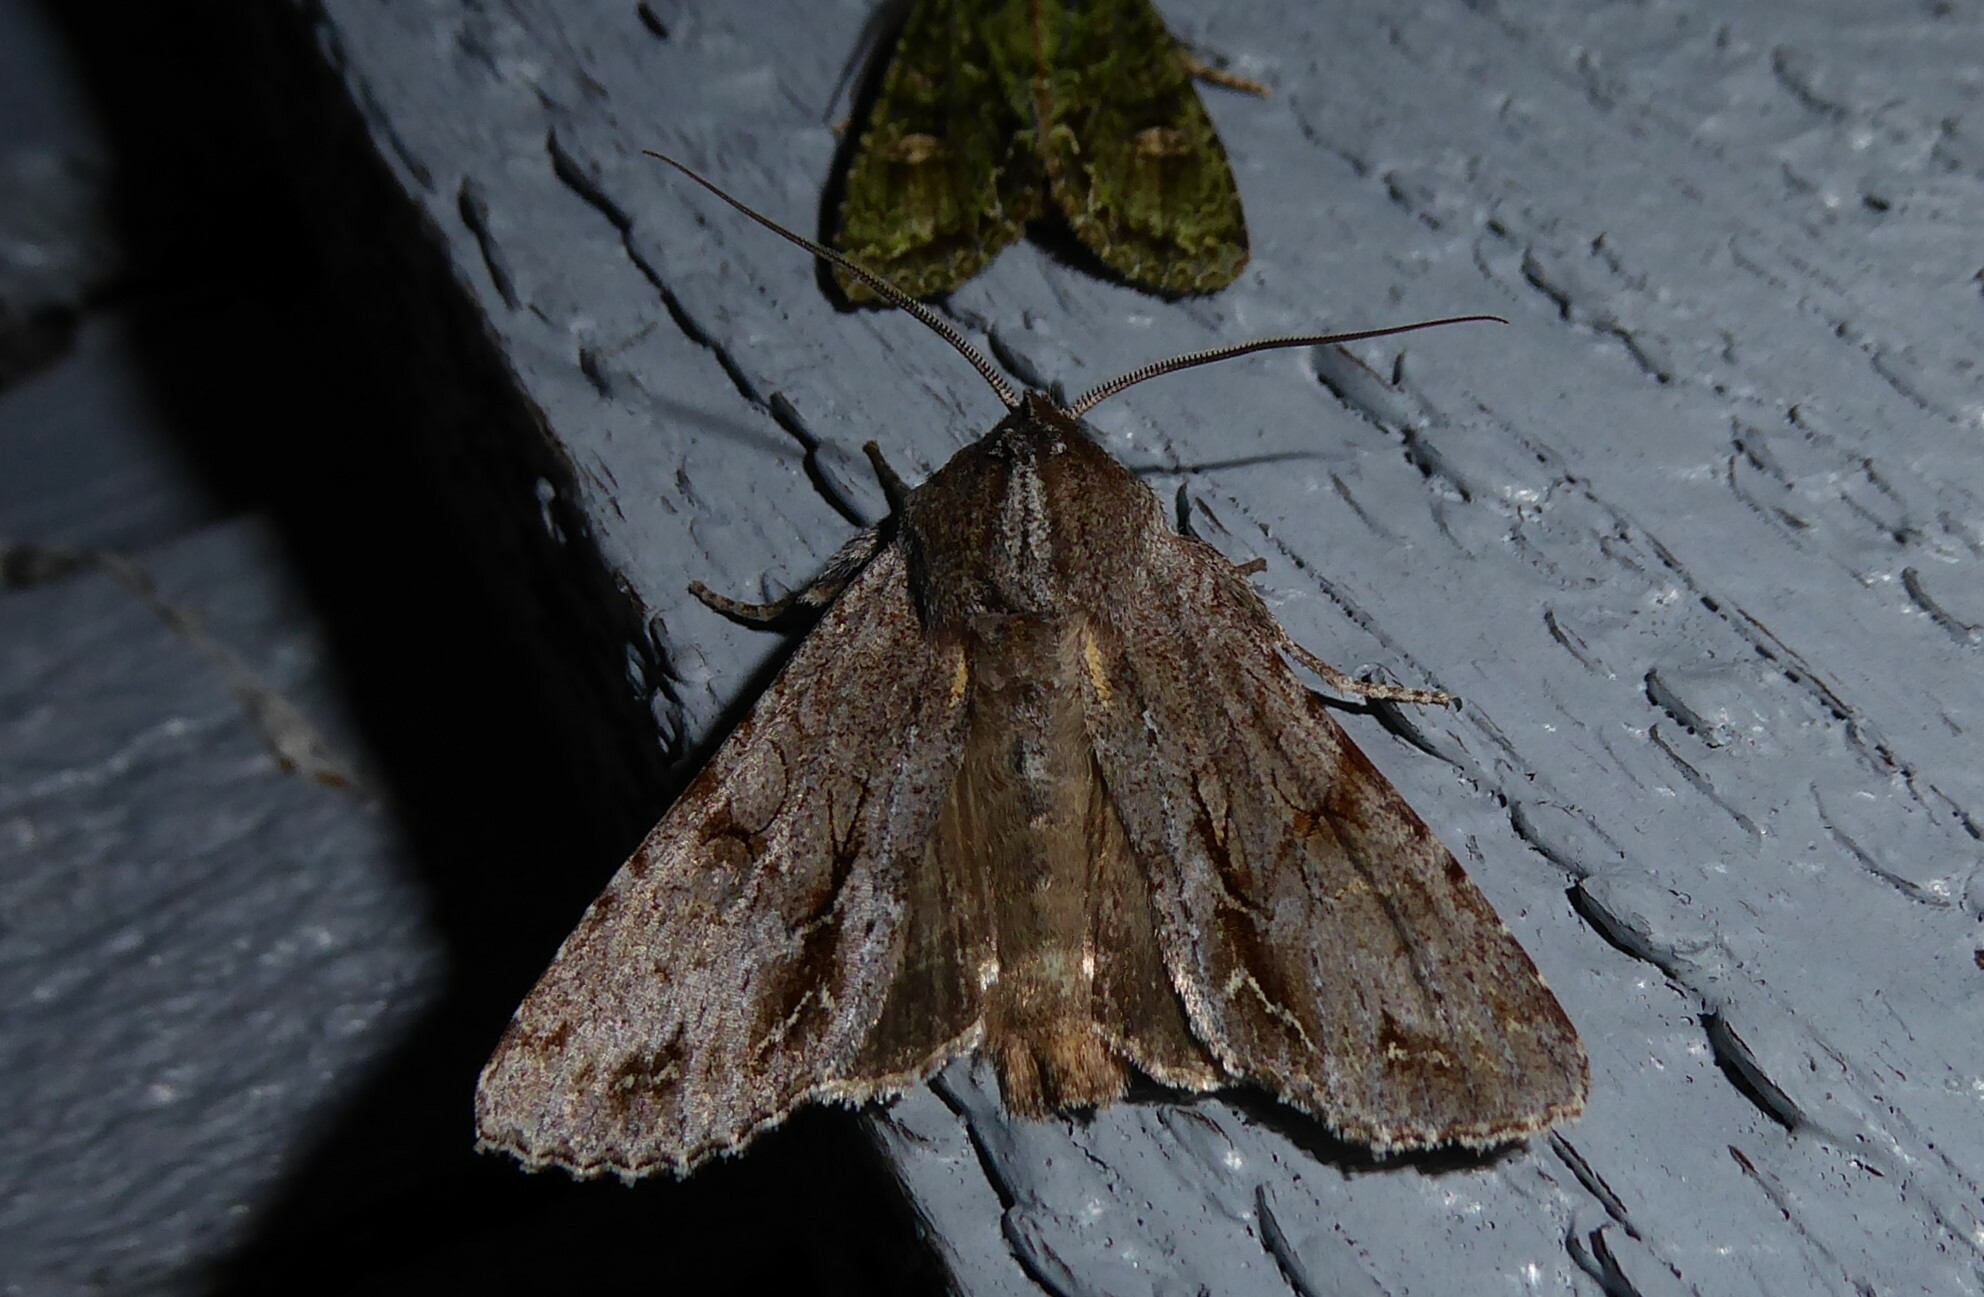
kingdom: Animalia
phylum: Arthropoda
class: Insecta
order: Lepidoptera
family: Noctuidae
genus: Ichneutica
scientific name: Ichneutica
